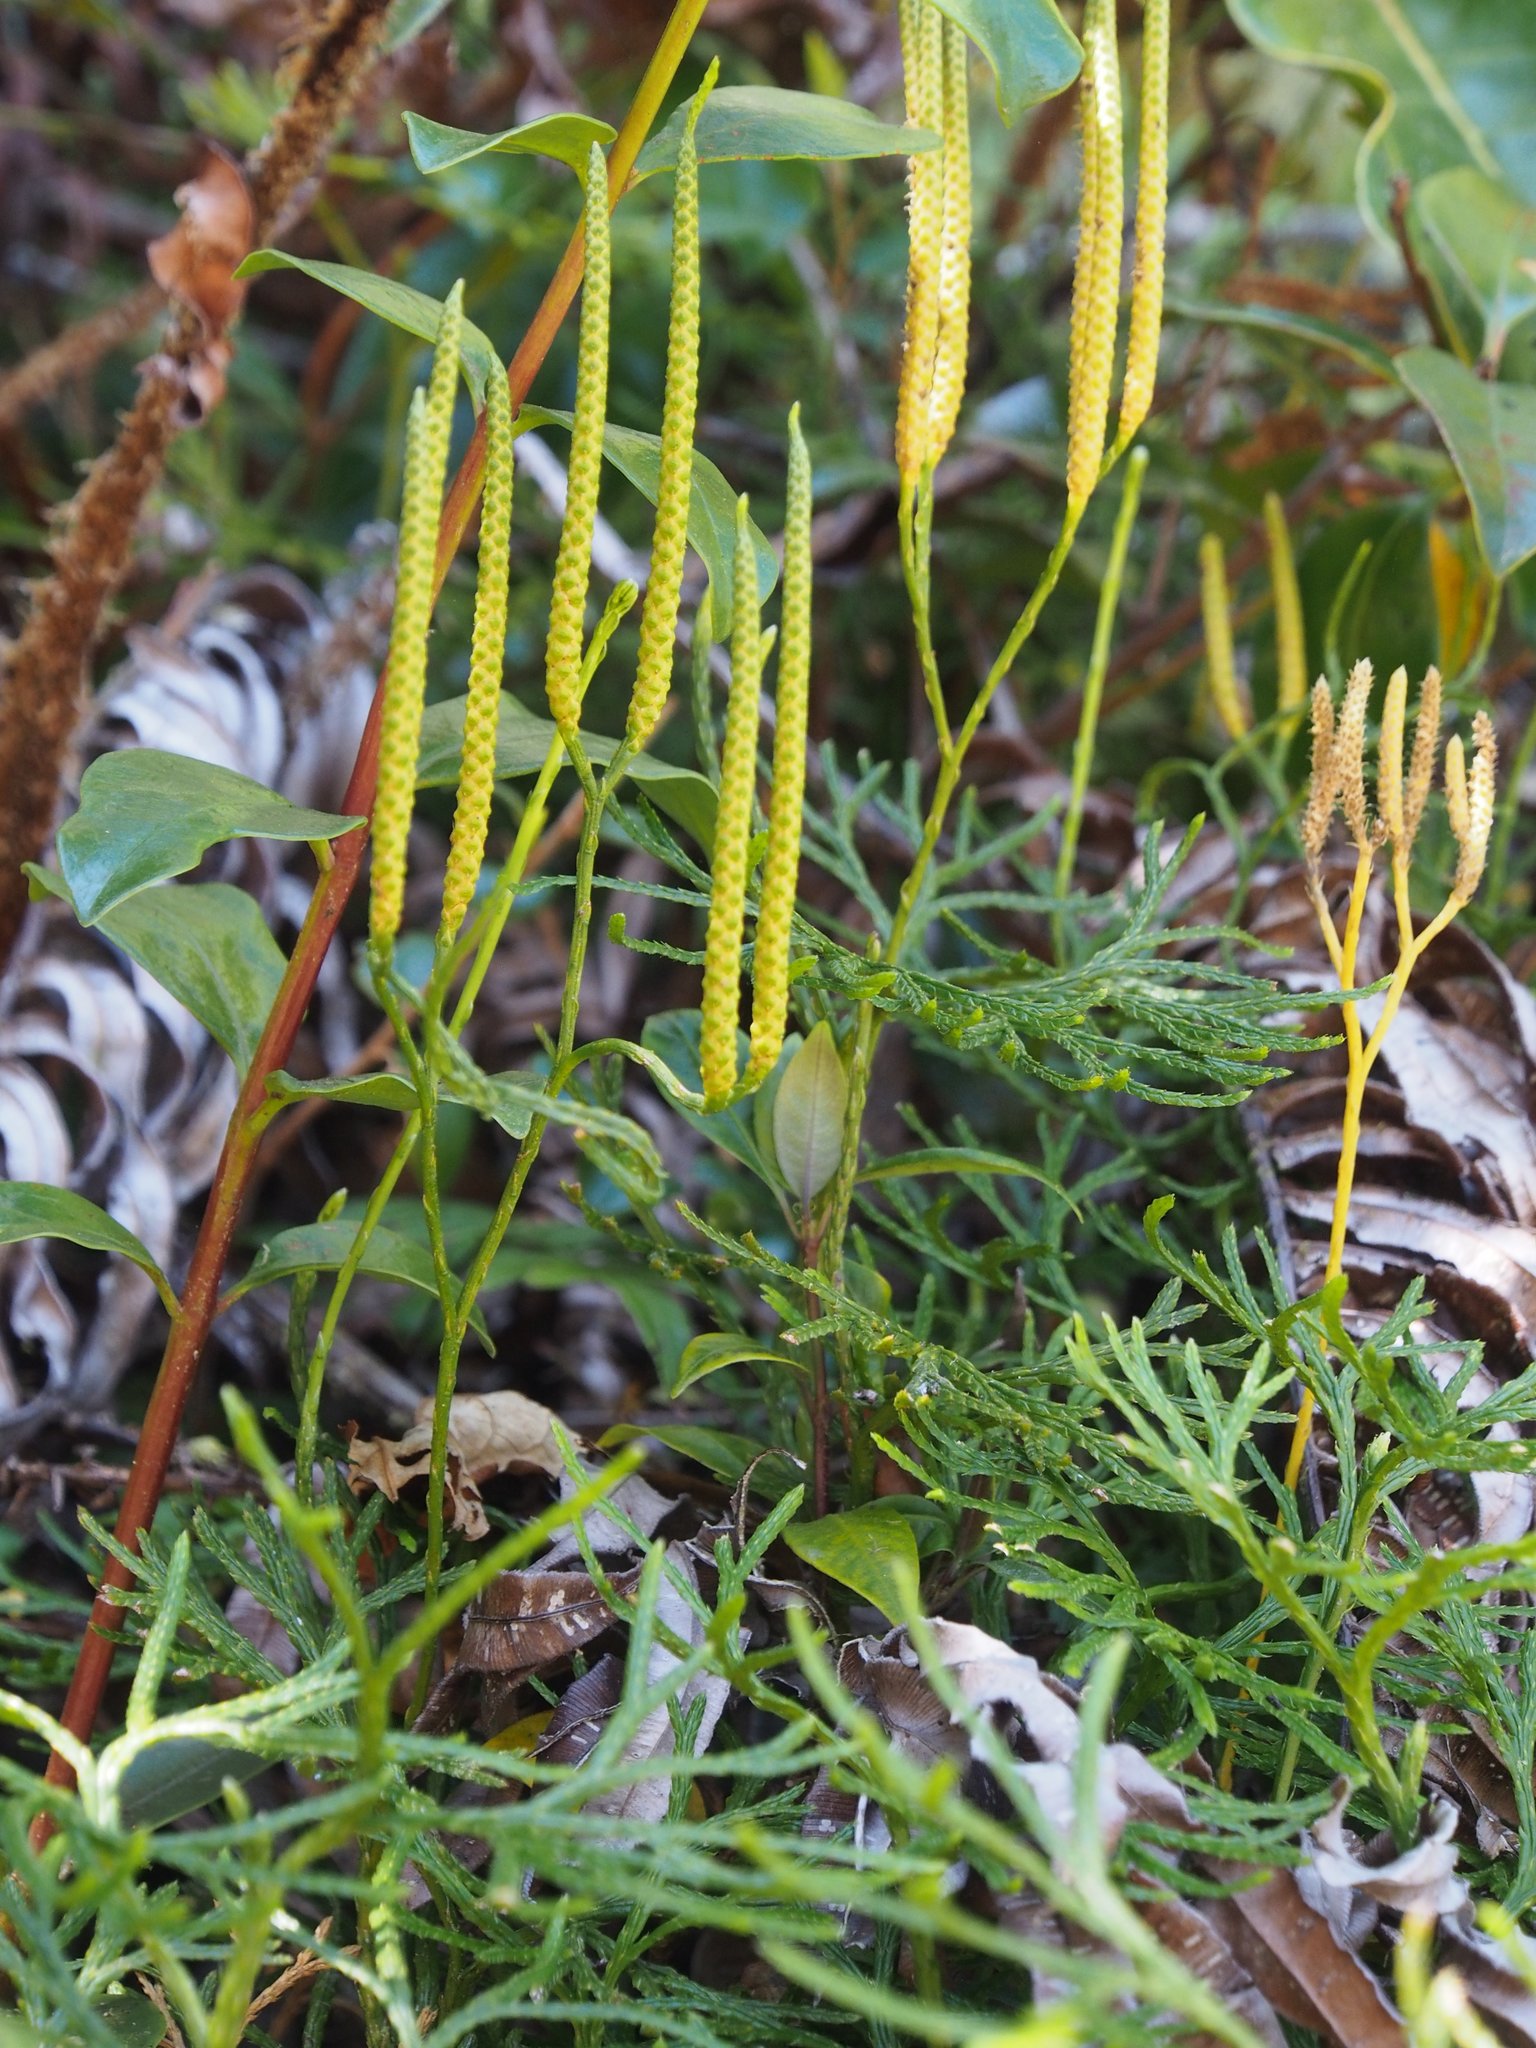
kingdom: Plantae
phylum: Tracheophyta
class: Lycopodiopsida
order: Lycopodiales
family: Lycopodiaceae
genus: Diphasiastrum
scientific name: Diphasiastrum thyoides
